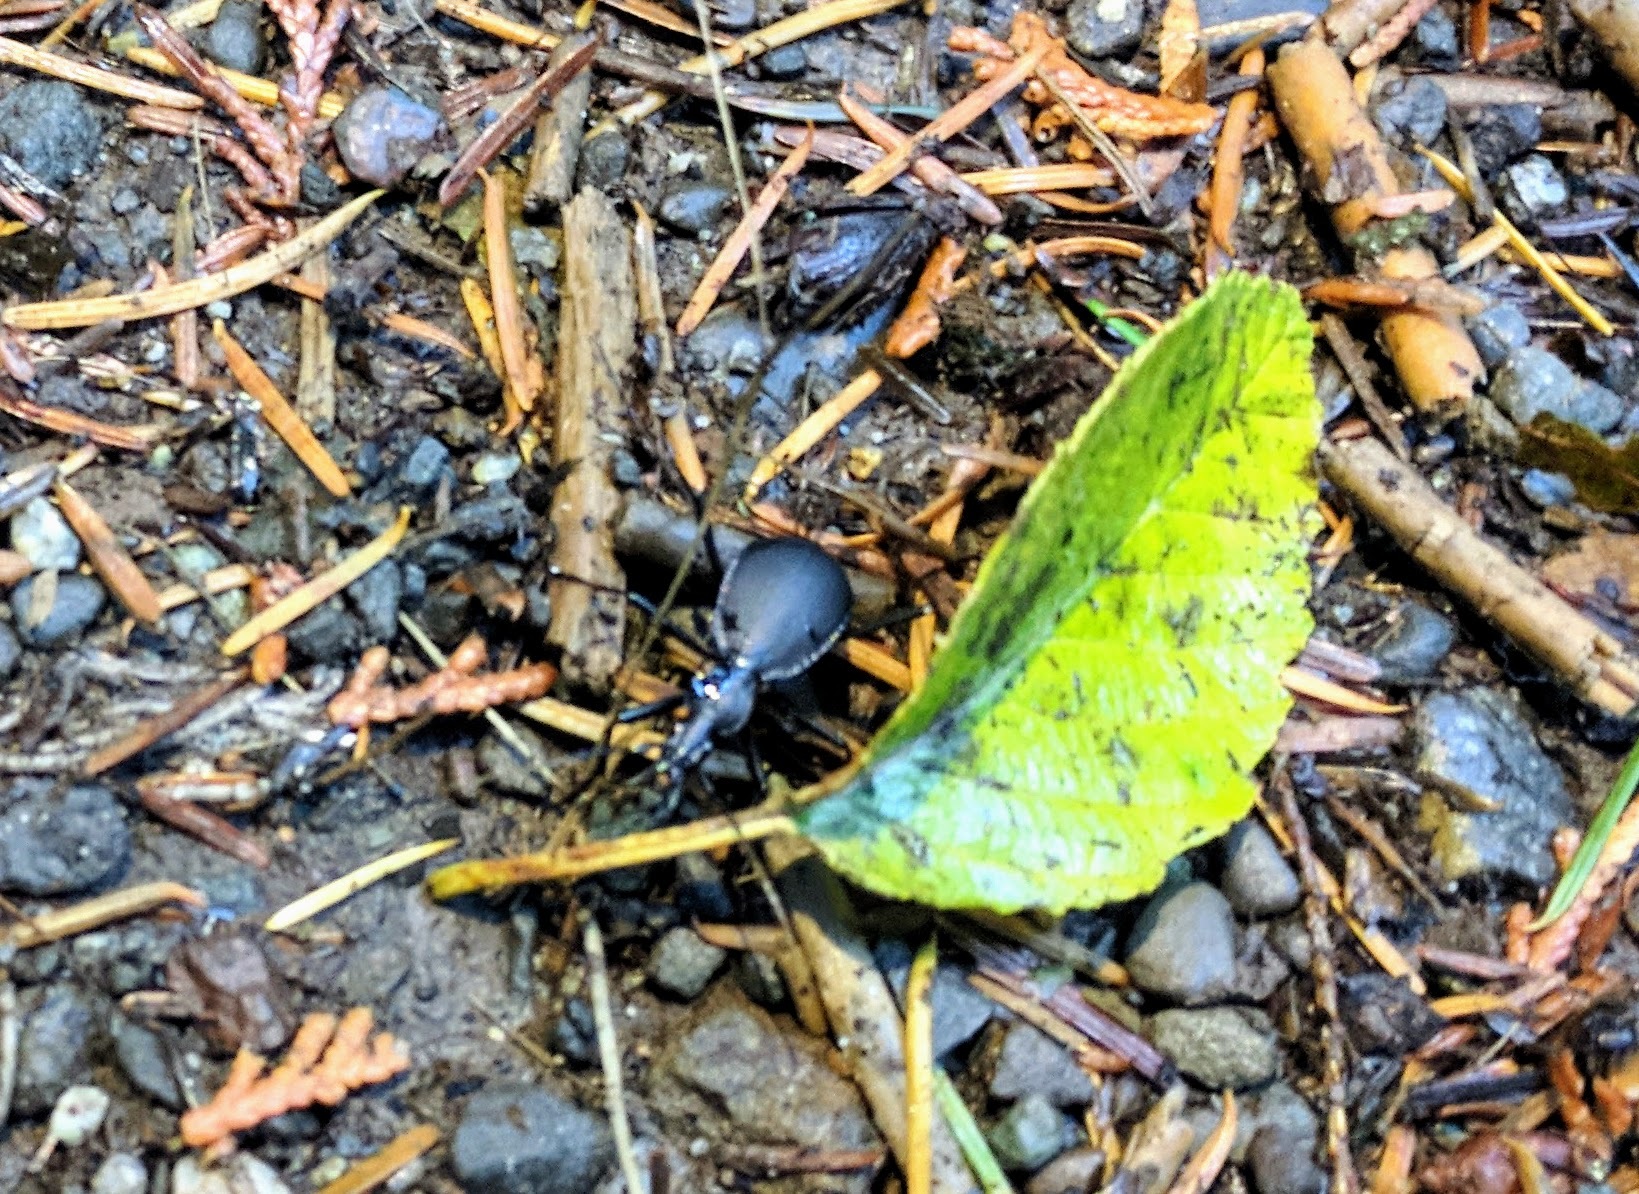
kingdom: Animalia
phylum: Arthropoda
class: Insecta
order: Coleoptera
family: Carabidae
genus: Scaphinotus
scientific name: Scaphinotus angusticollis
